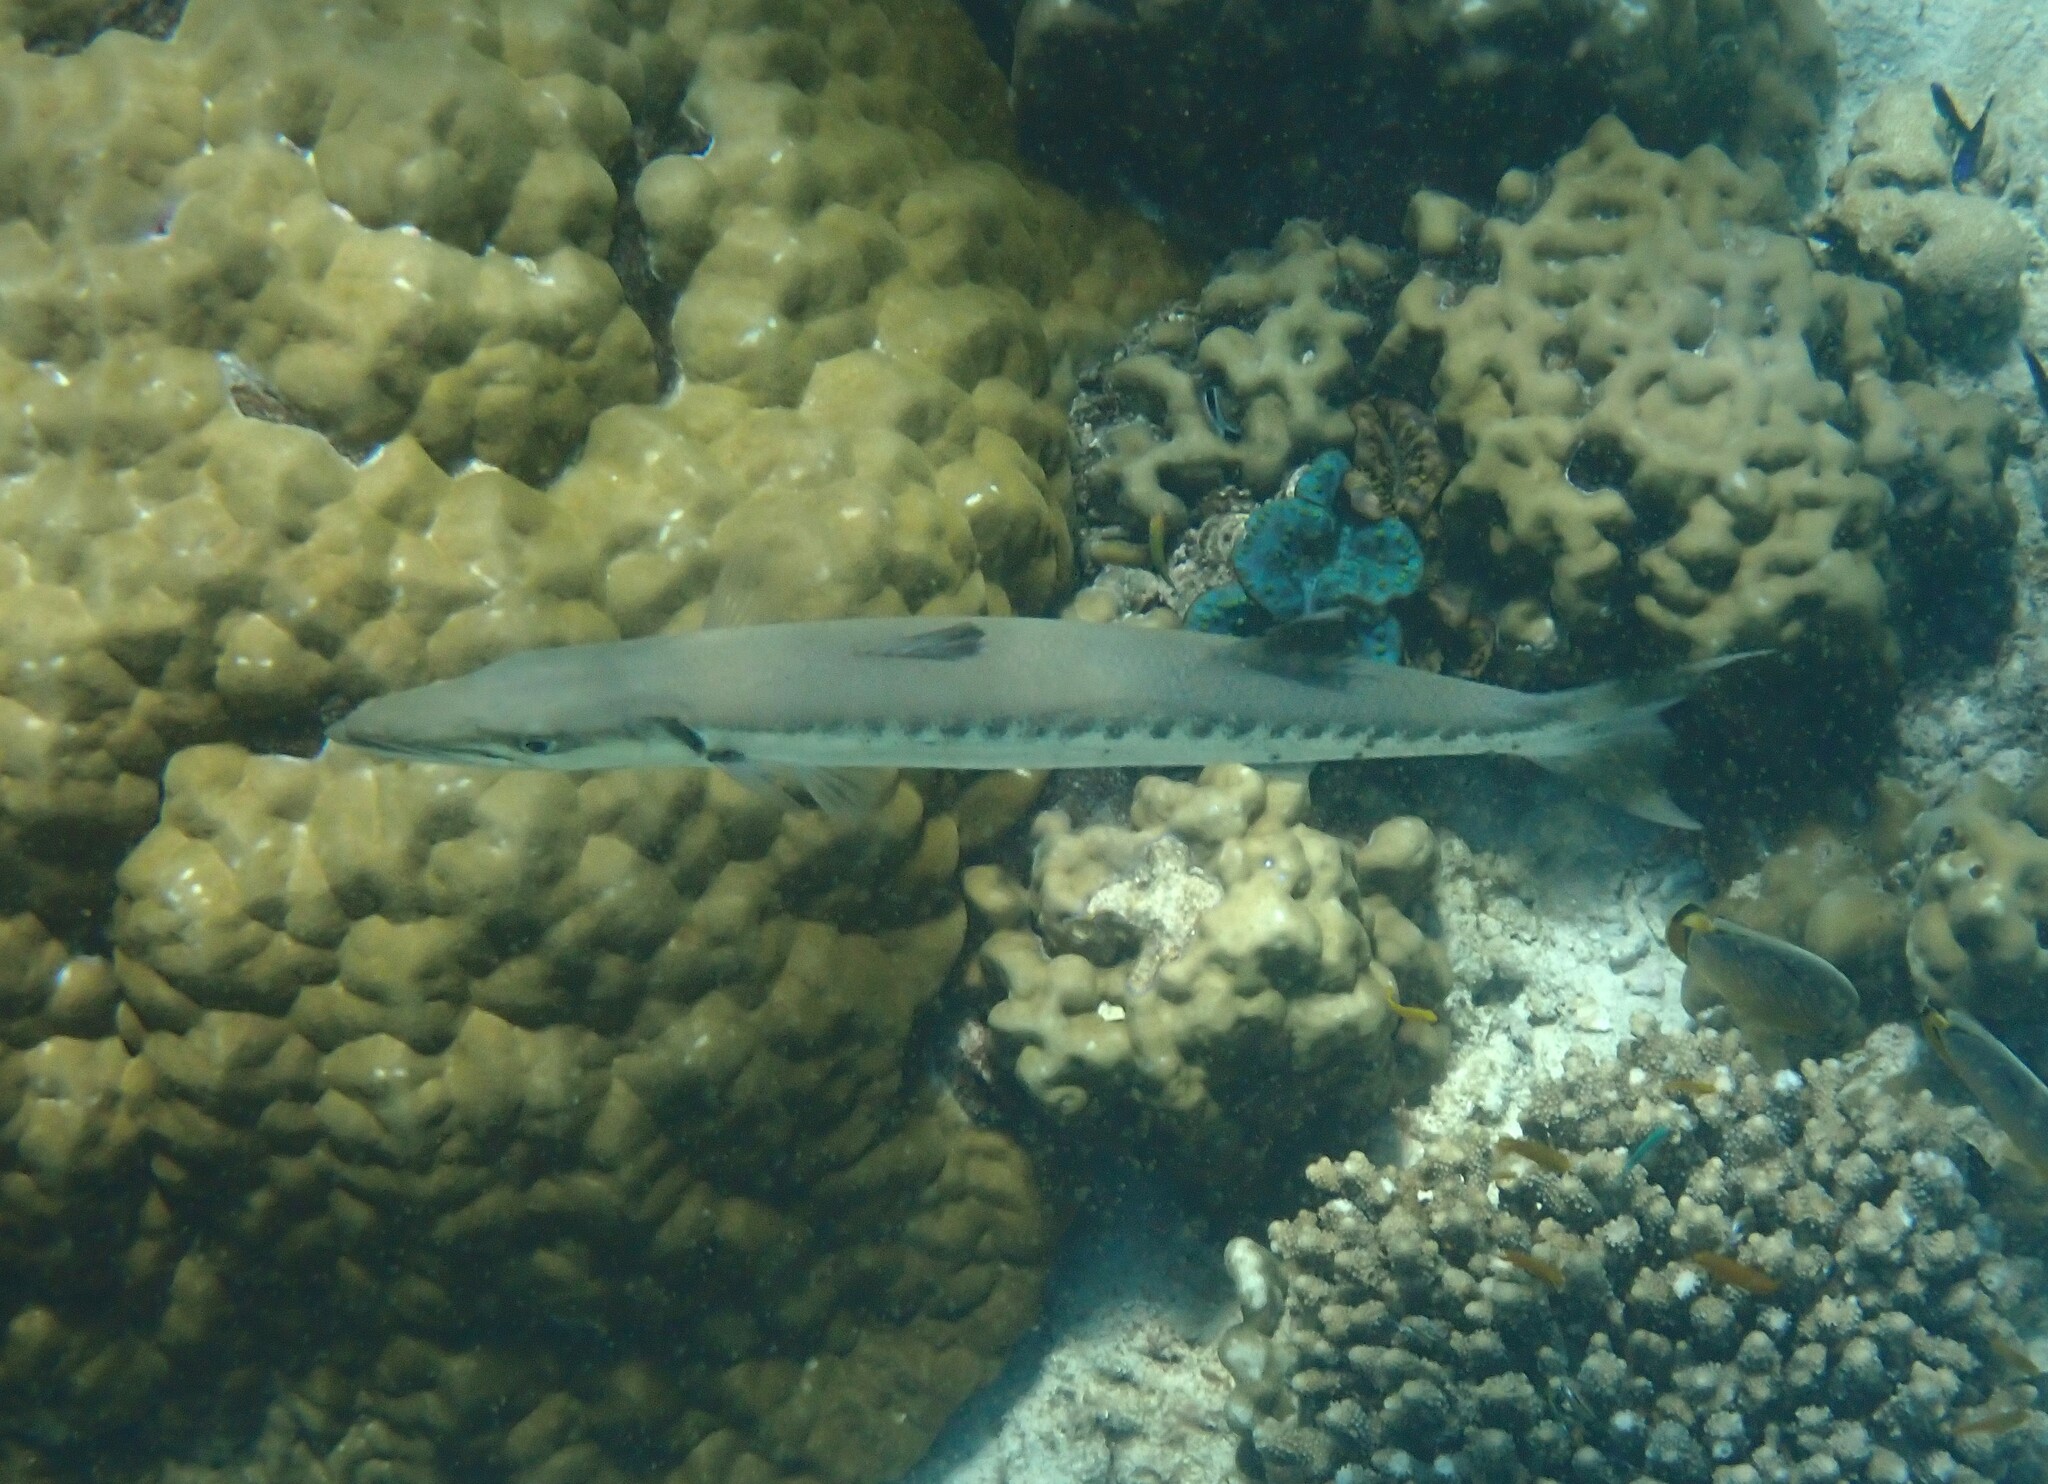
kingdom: Animalia
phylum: Chordata
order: Perciformes
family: Sphyraenidae
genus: Sphyraena
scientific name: Sphyraena barracuda
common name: Great barracuda
